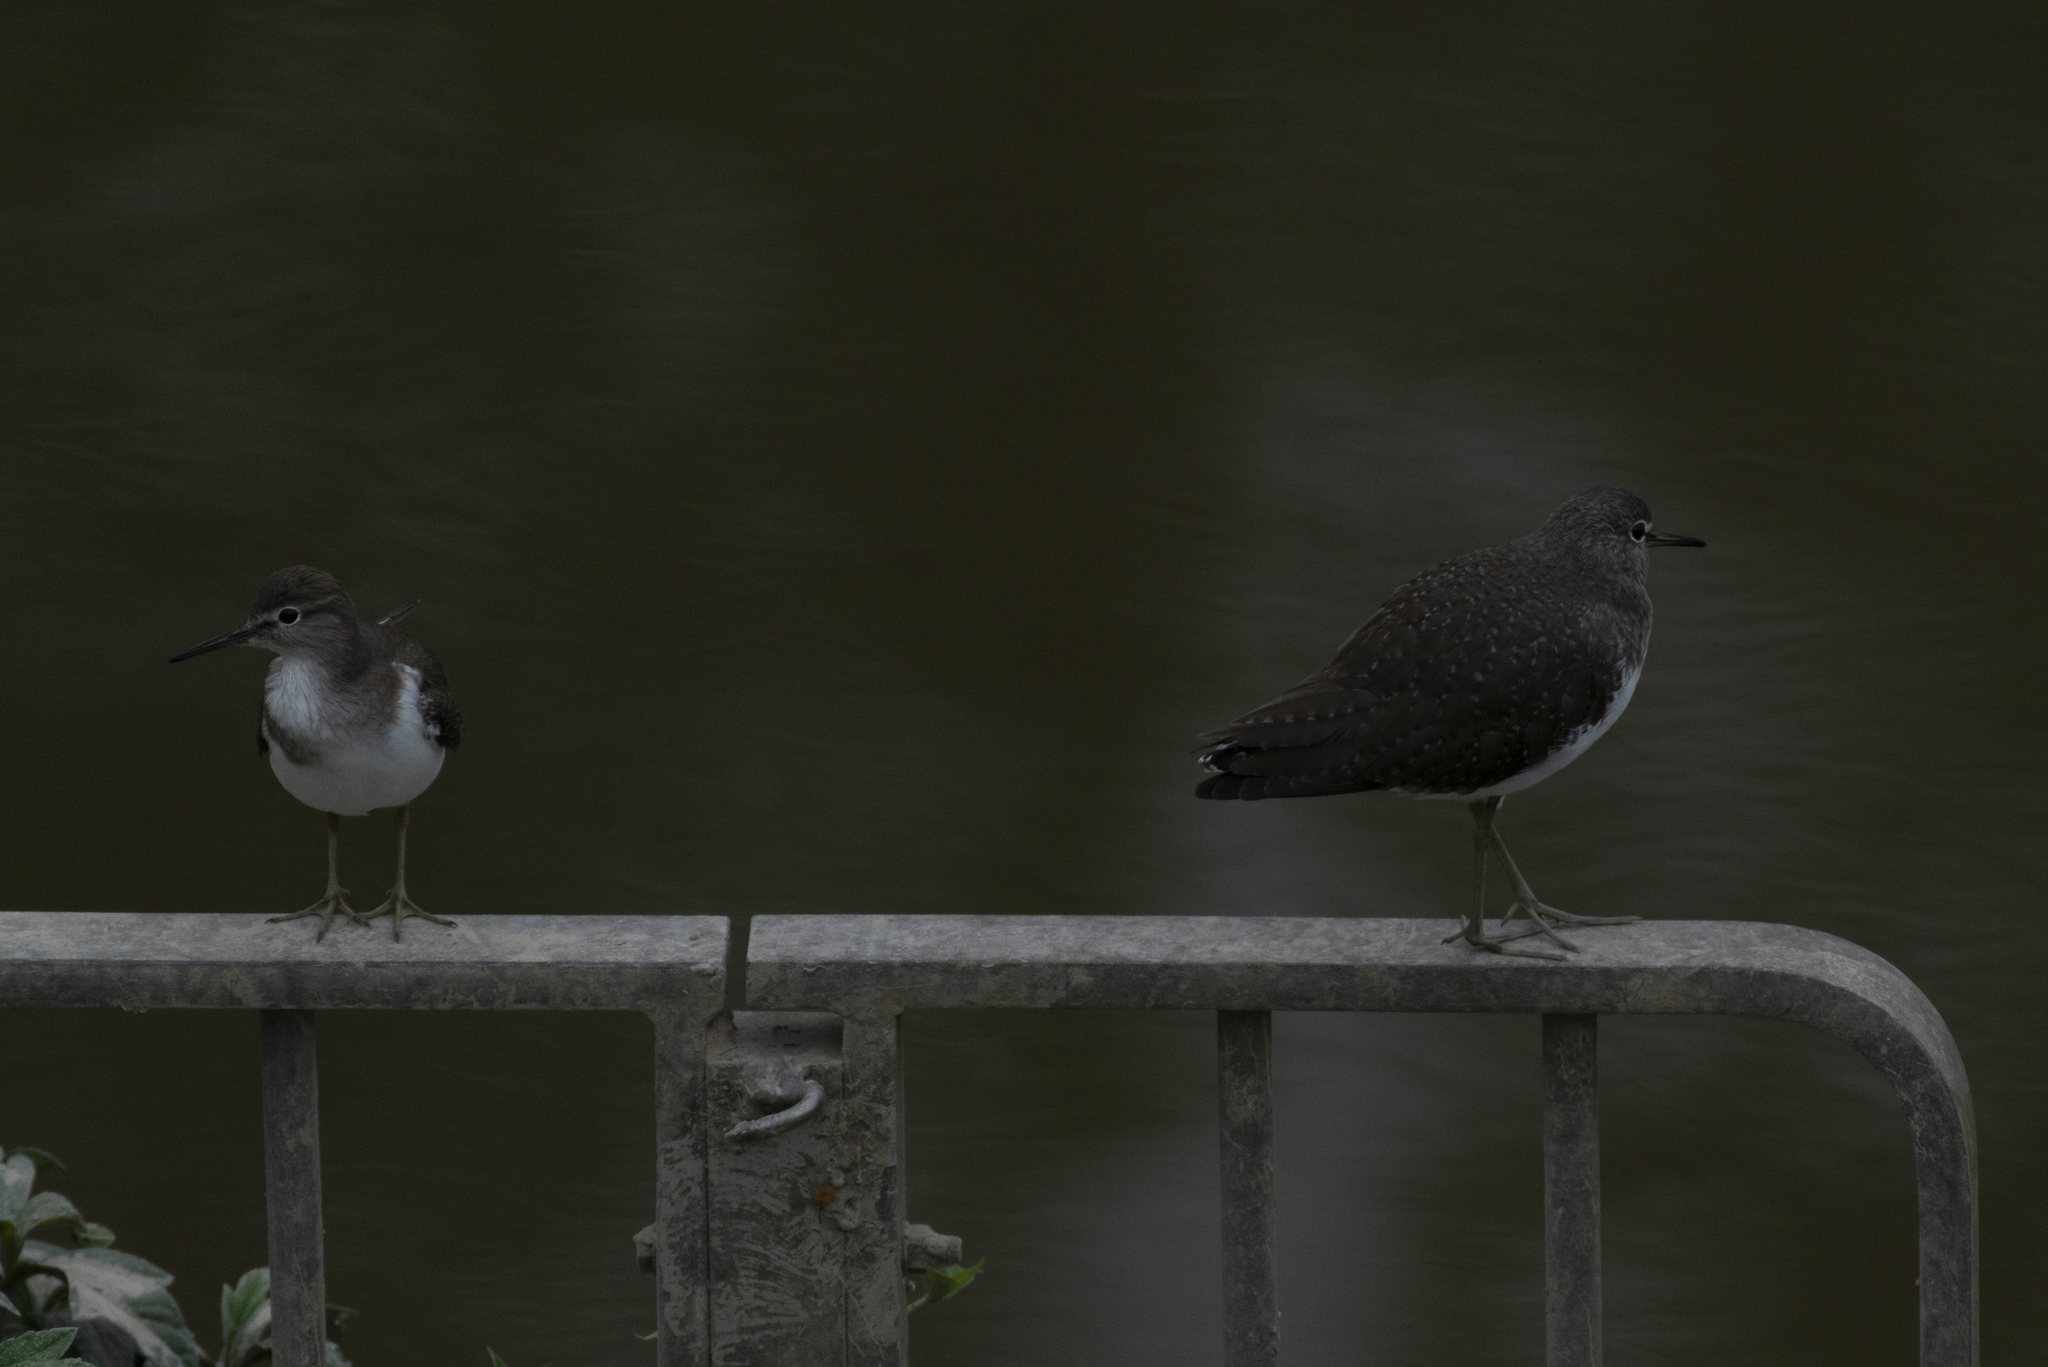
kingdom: Animalia
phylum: Chordata
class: Aves
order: Charadriiformes
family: Scolopacidae
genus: Tringa
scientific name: Tringa ochropus
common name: Green sandpiper
